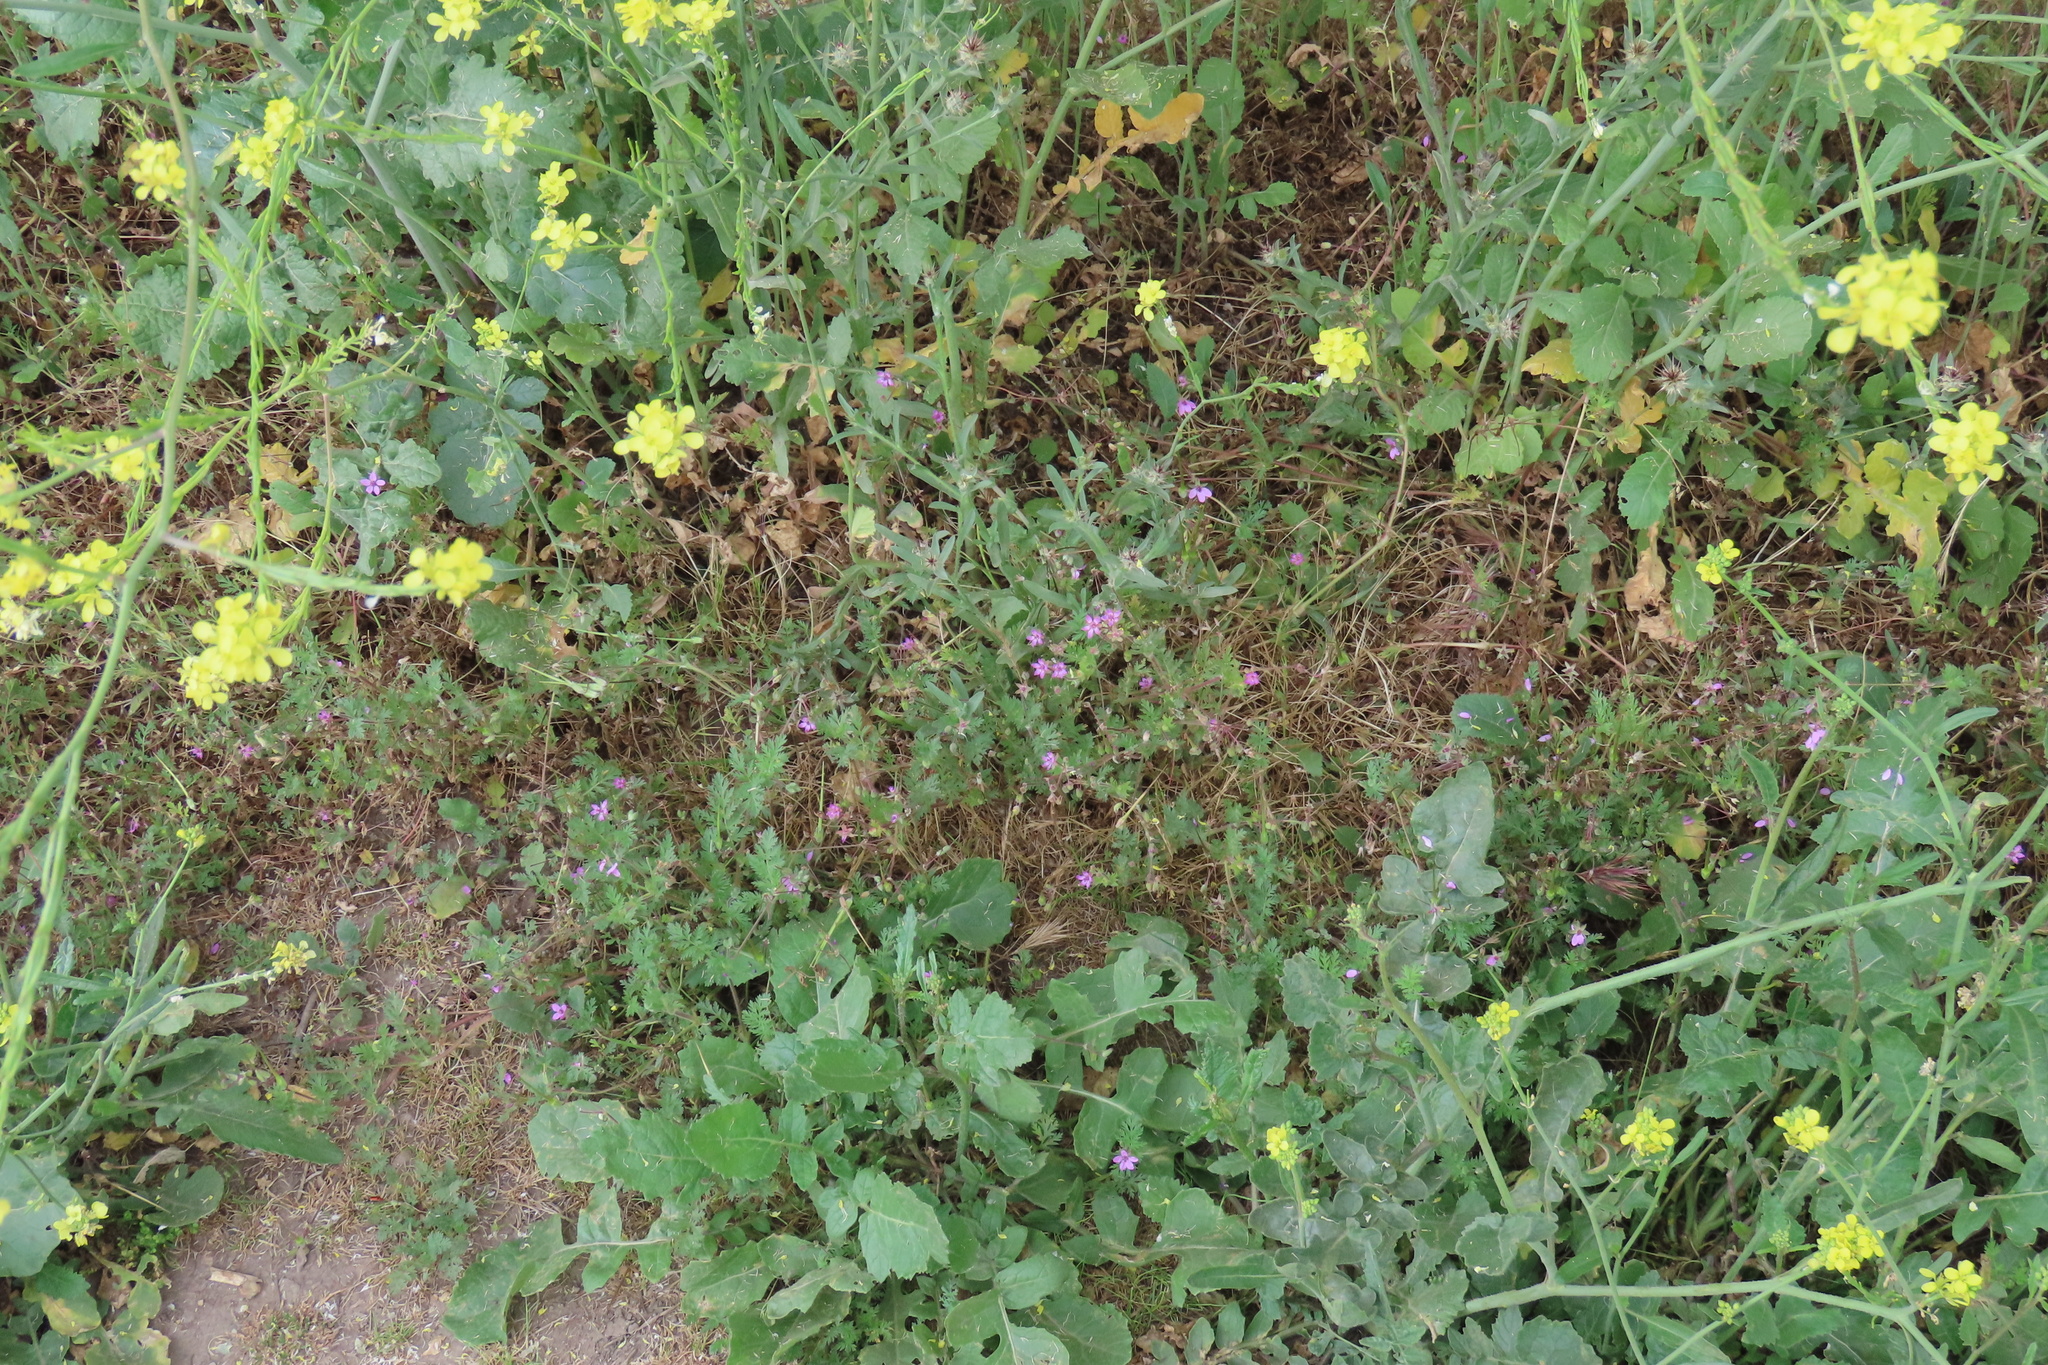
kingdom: Plantae
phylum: Tracheophyta
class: Magnoliopsida
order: Geraniales
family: Geraniaceae
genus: Erodium
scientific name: Erodium cicutarium
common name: Common stork's-bill
